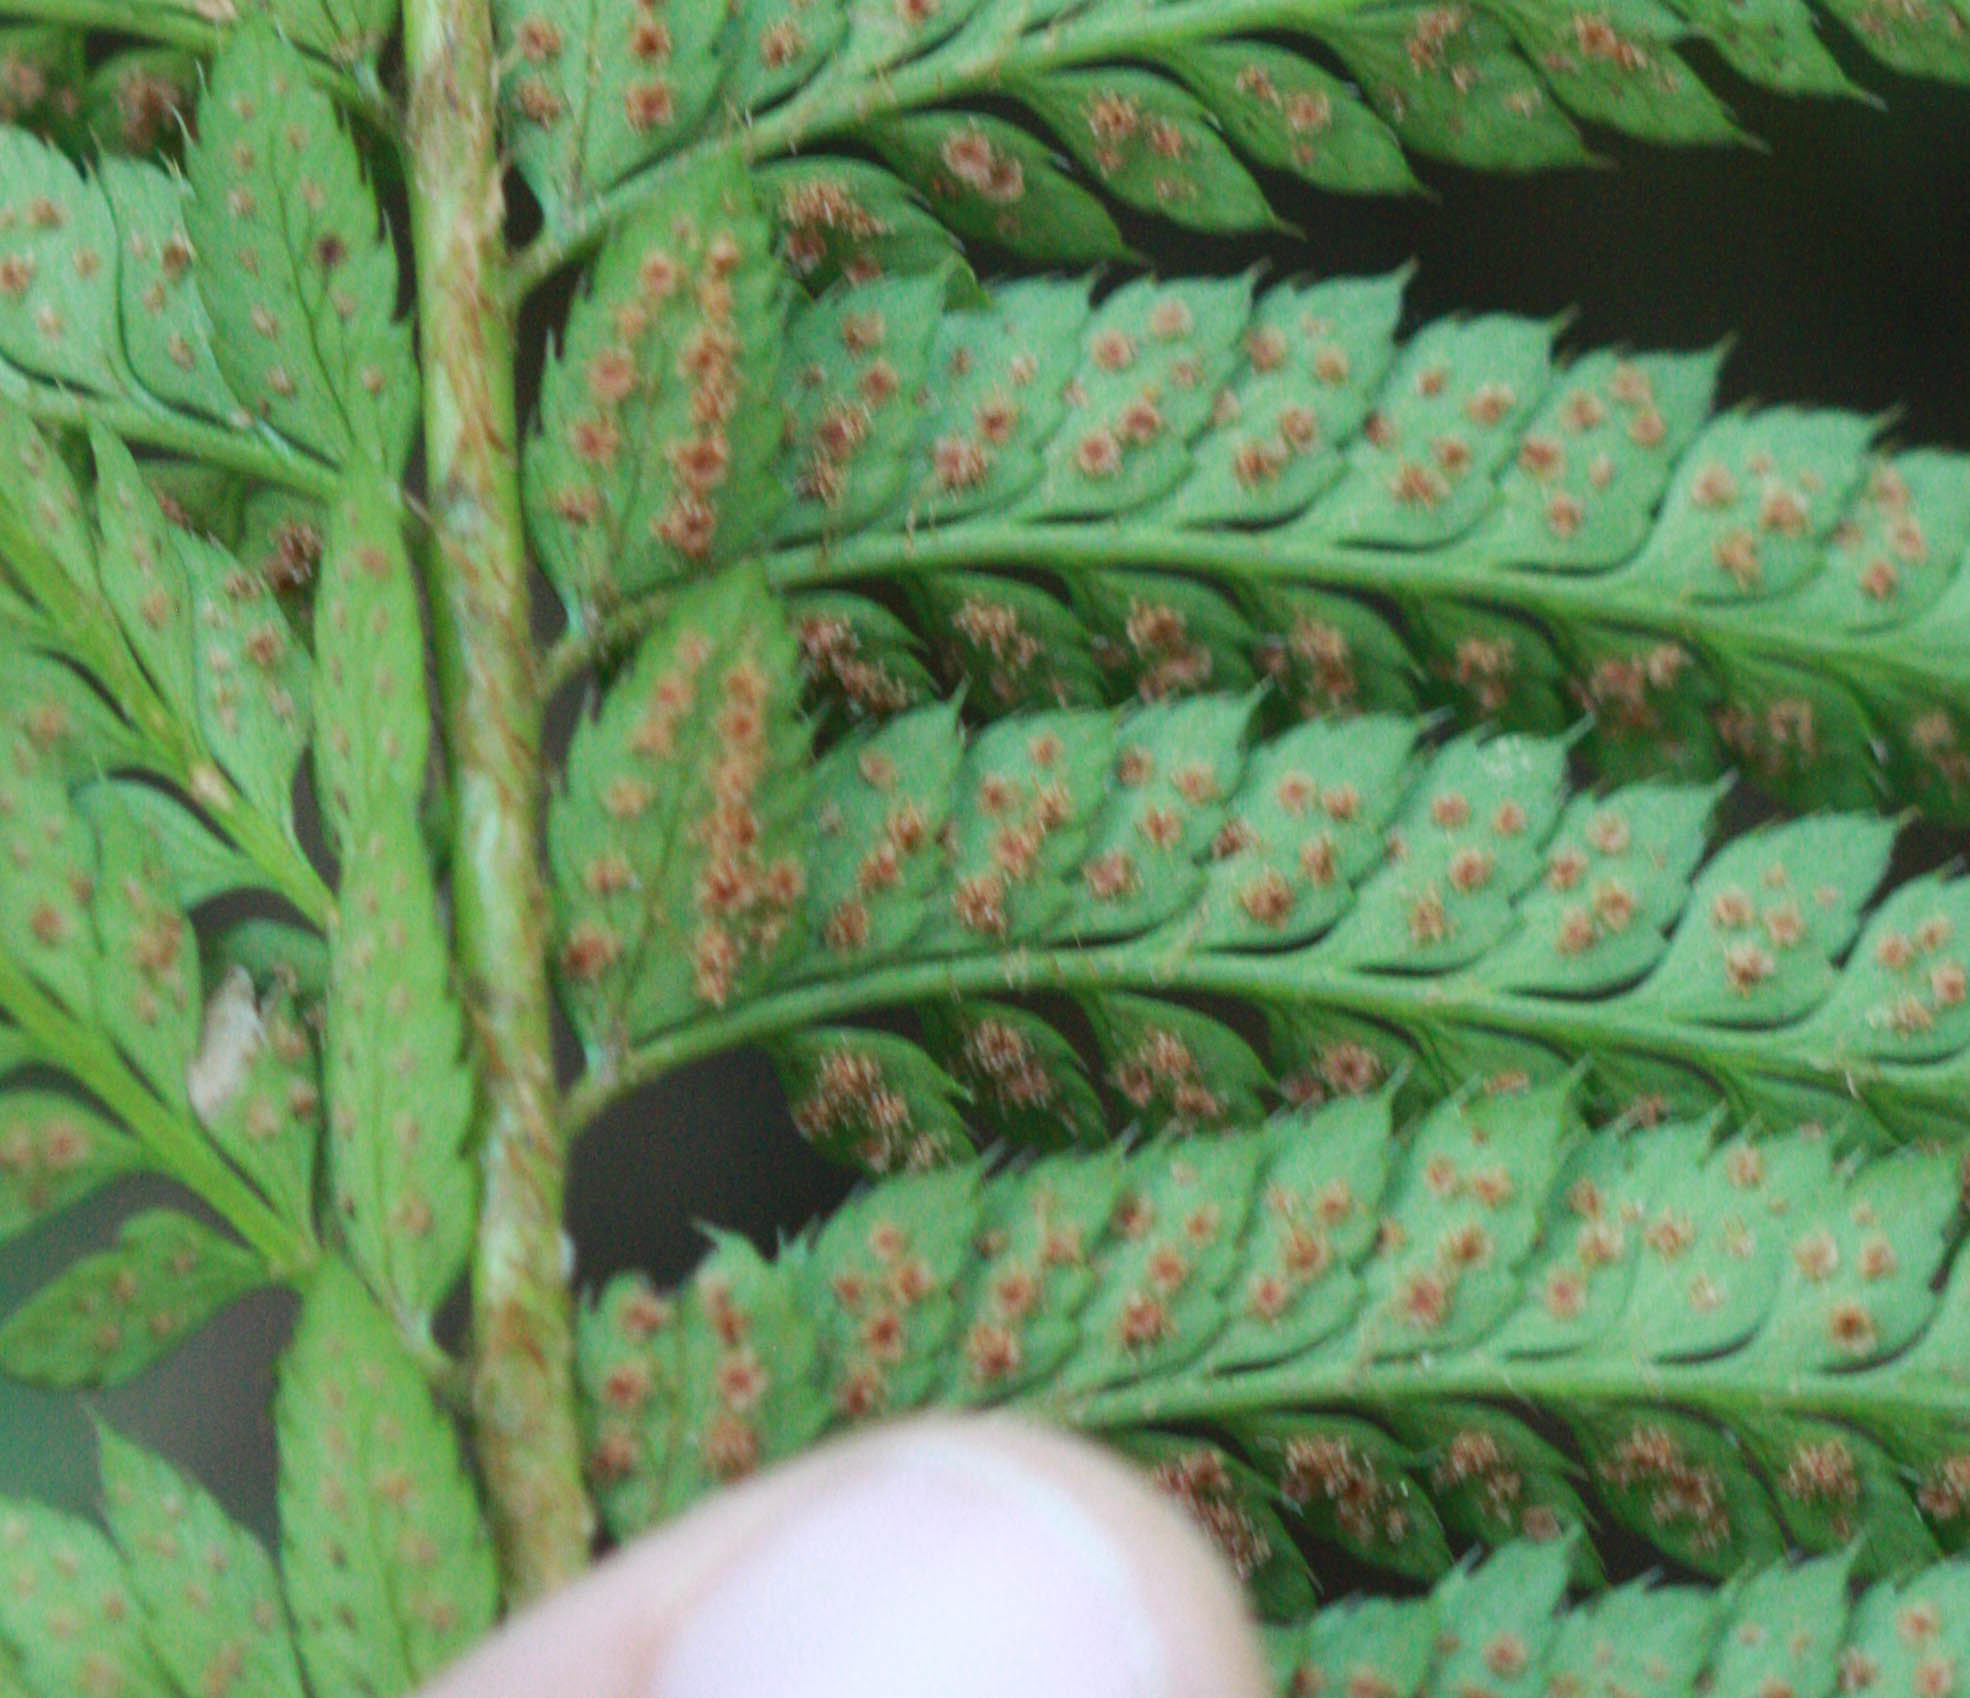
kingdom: Plantae
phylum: Tracheophyta
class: Polypodiopsida
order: Polypodiales
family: Dryopteridaceae
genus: Polystichum
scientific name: Polystichum californicum
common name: California sword fern
